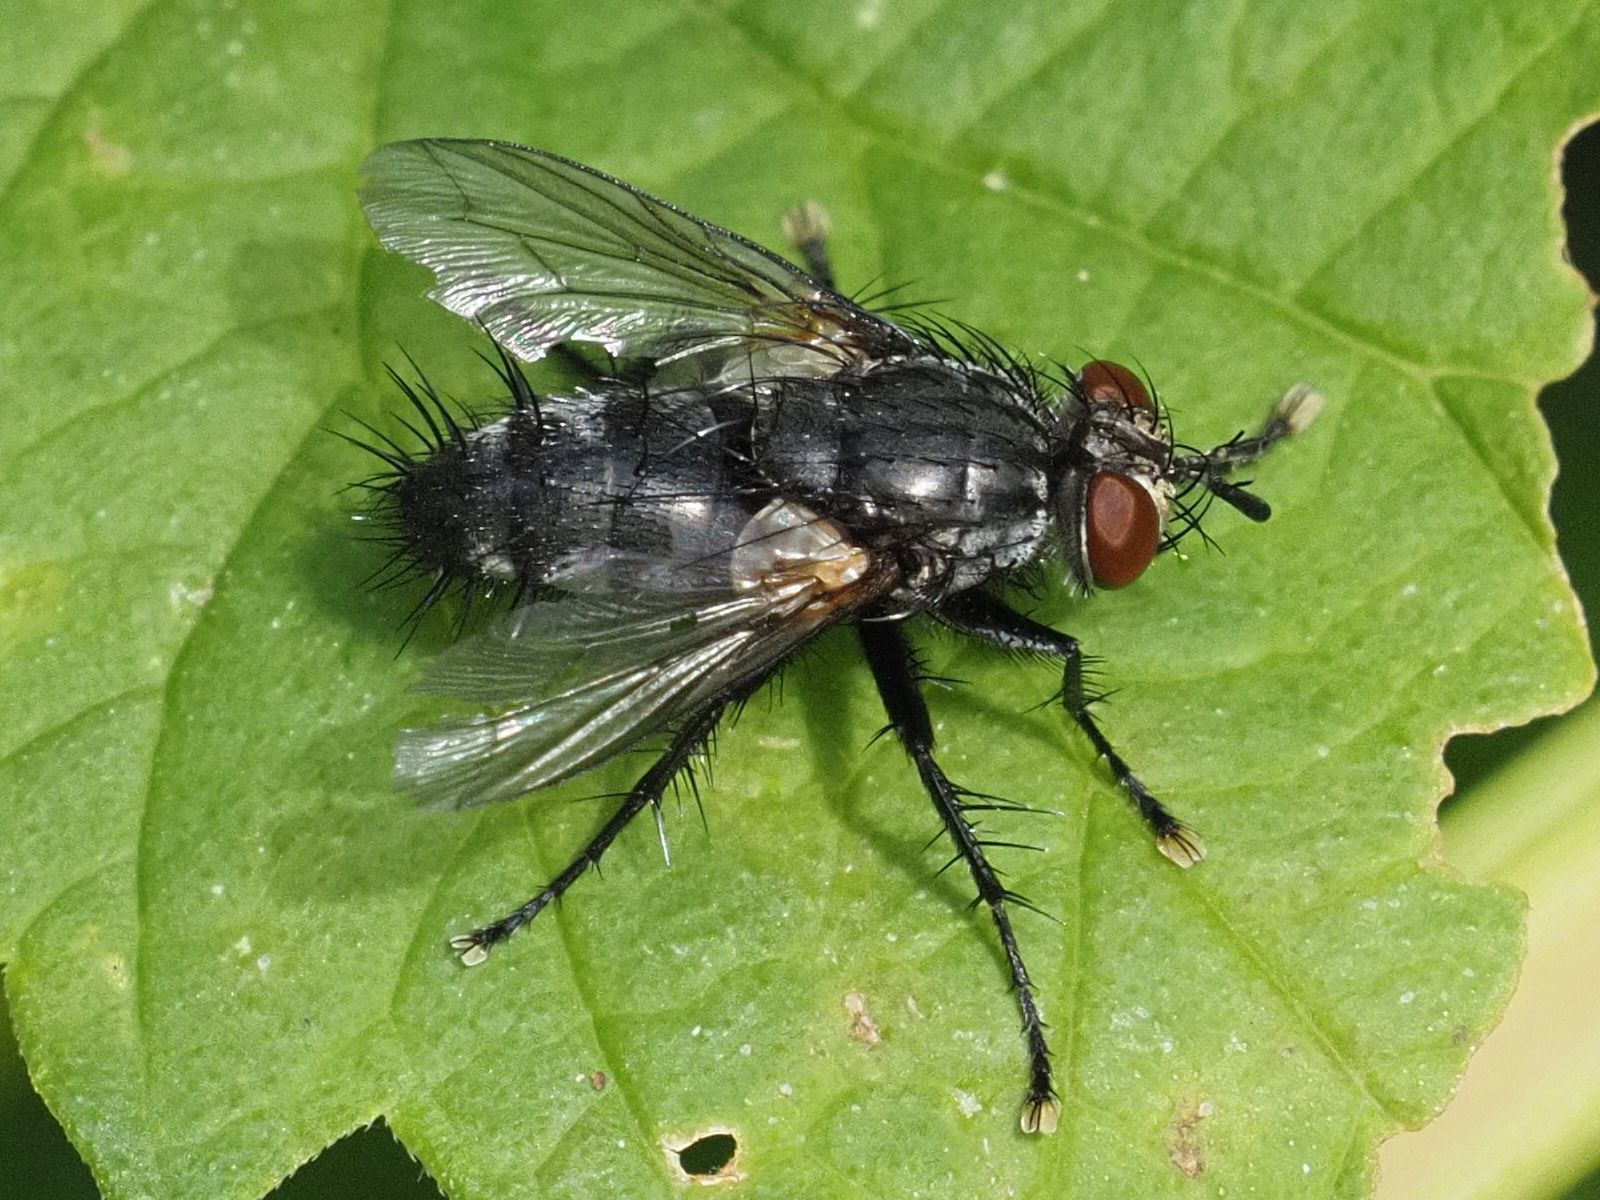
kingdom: Animalia
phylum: Arthropoda
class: Insecta
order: Diptera
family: Tachinidae
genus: Voria
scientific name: Voria ruralis
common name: Parasitic fly
